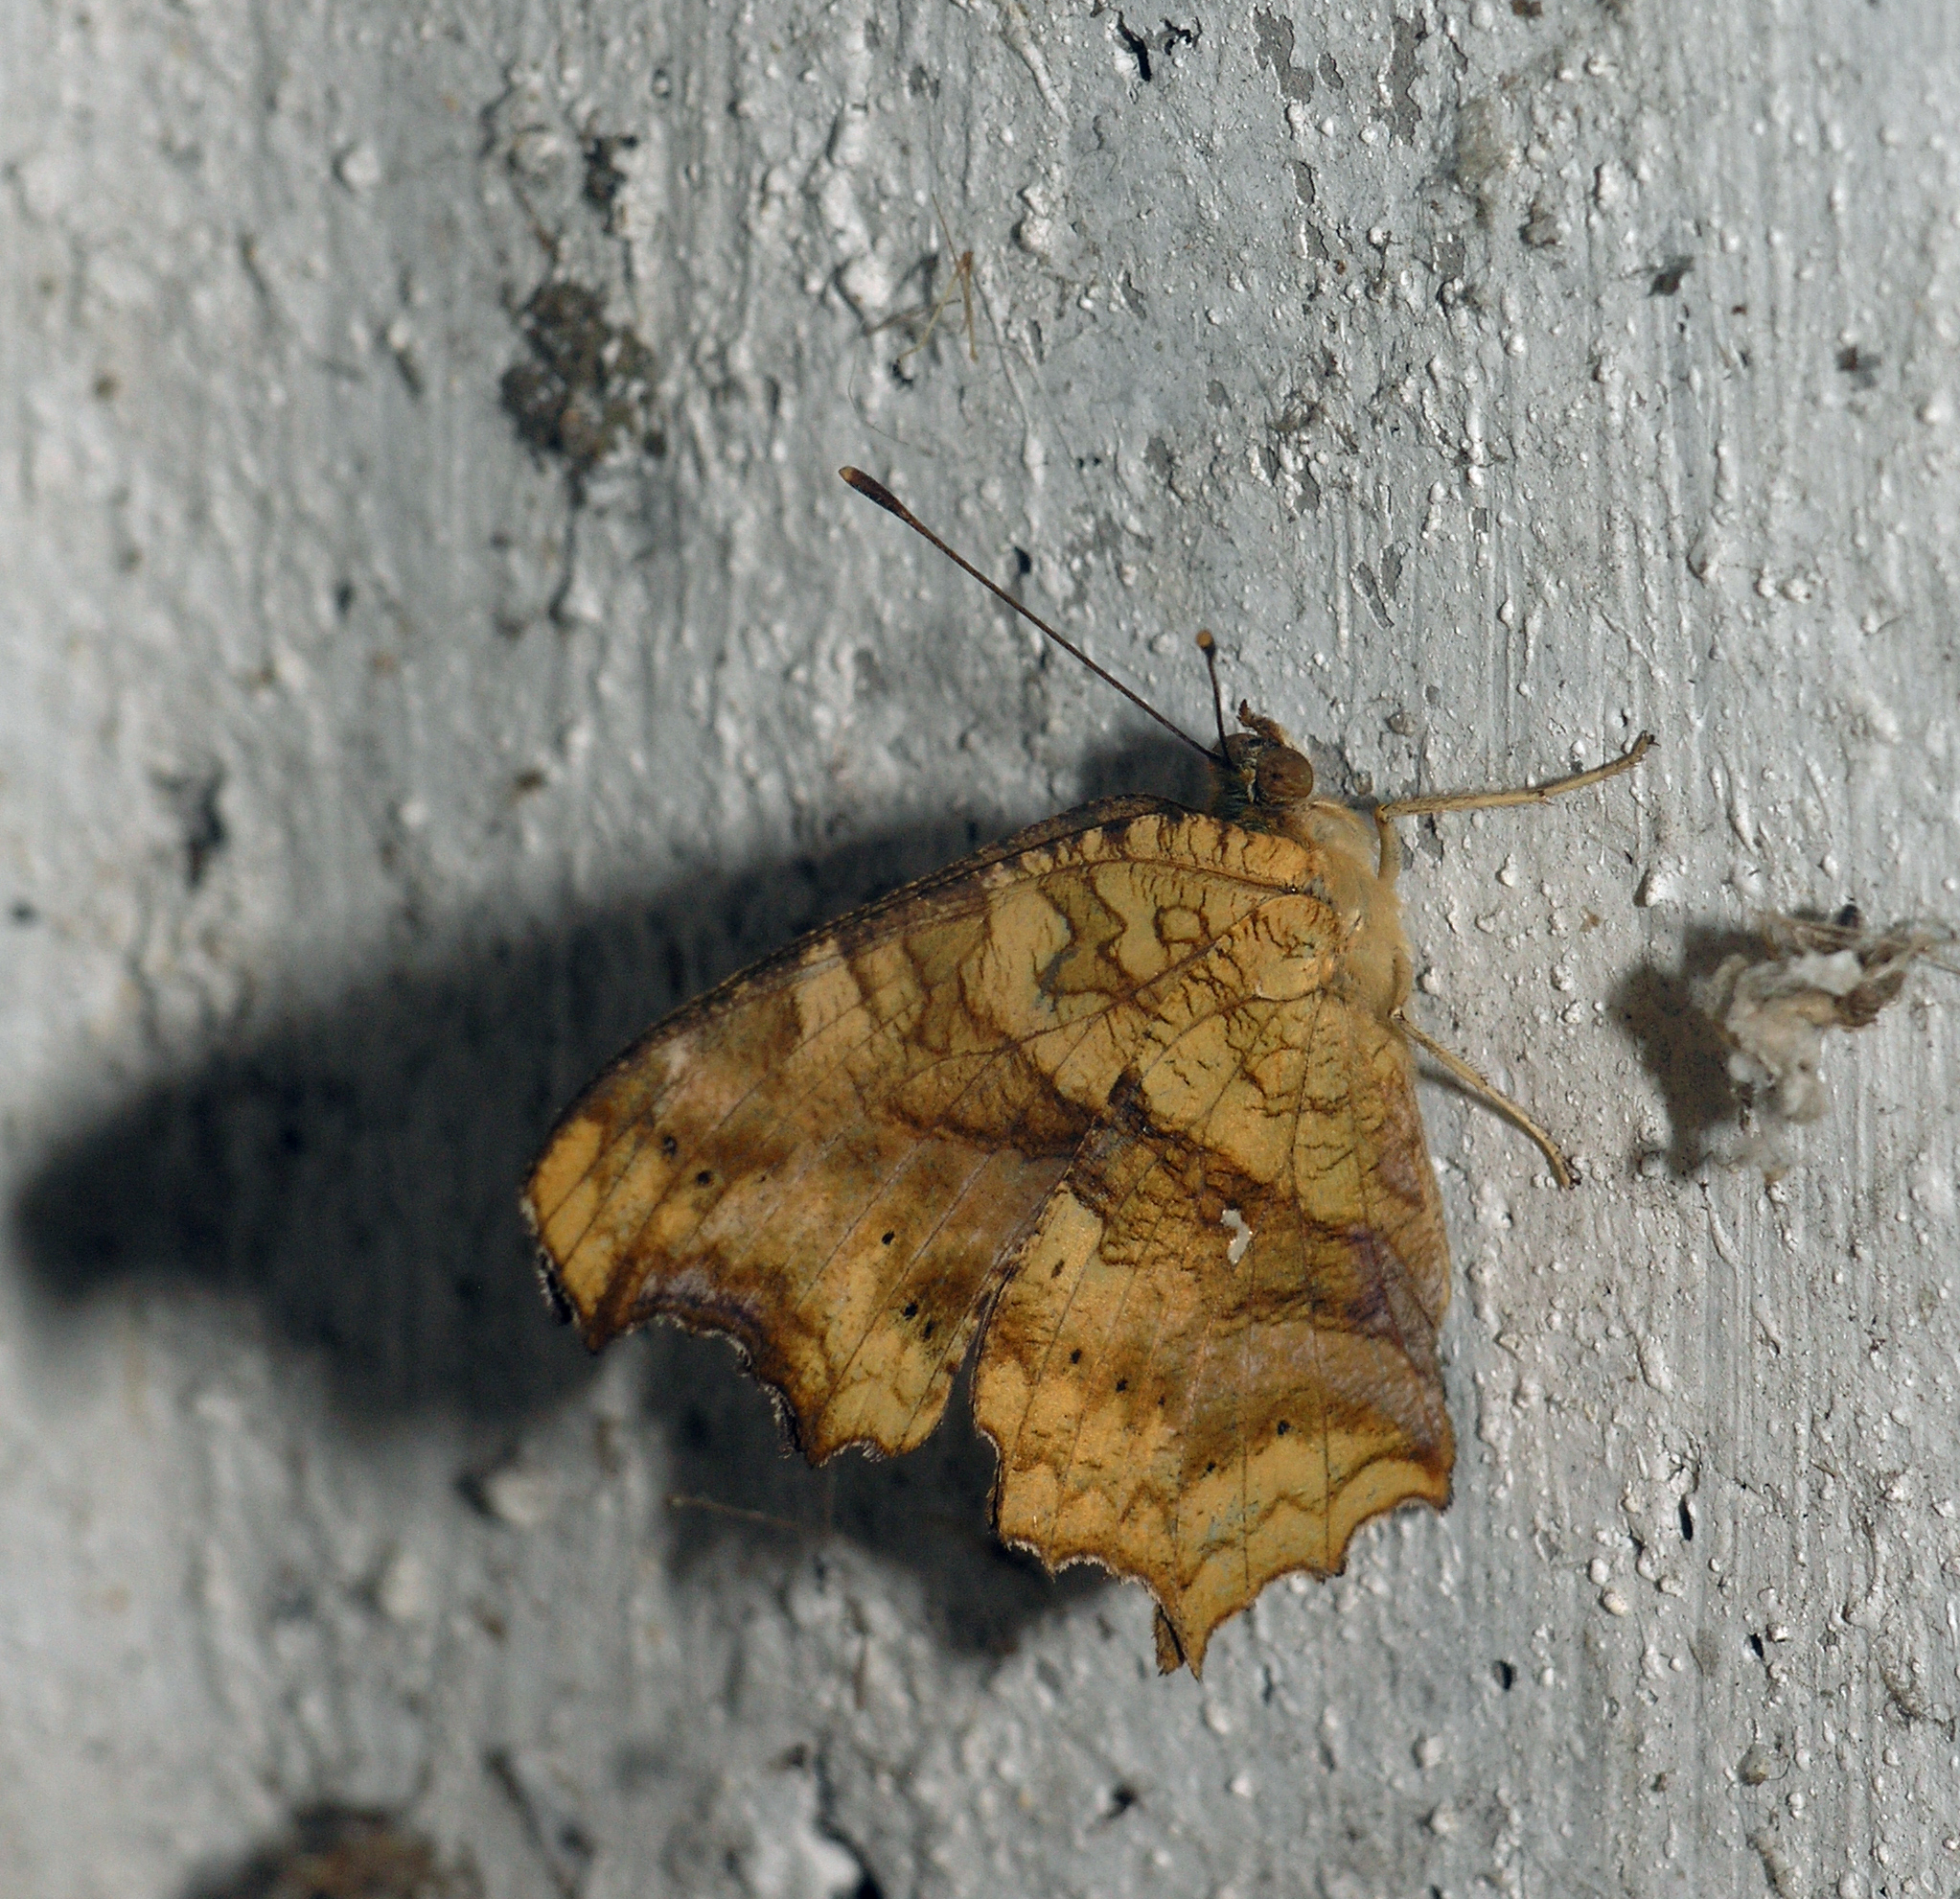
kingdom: Animalia
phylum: Arthropoda
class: Insecta
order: Lepidoptera
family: Nymphalidae
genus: Polygonia
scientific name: Polygonia c-aureum
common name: Asian comma
